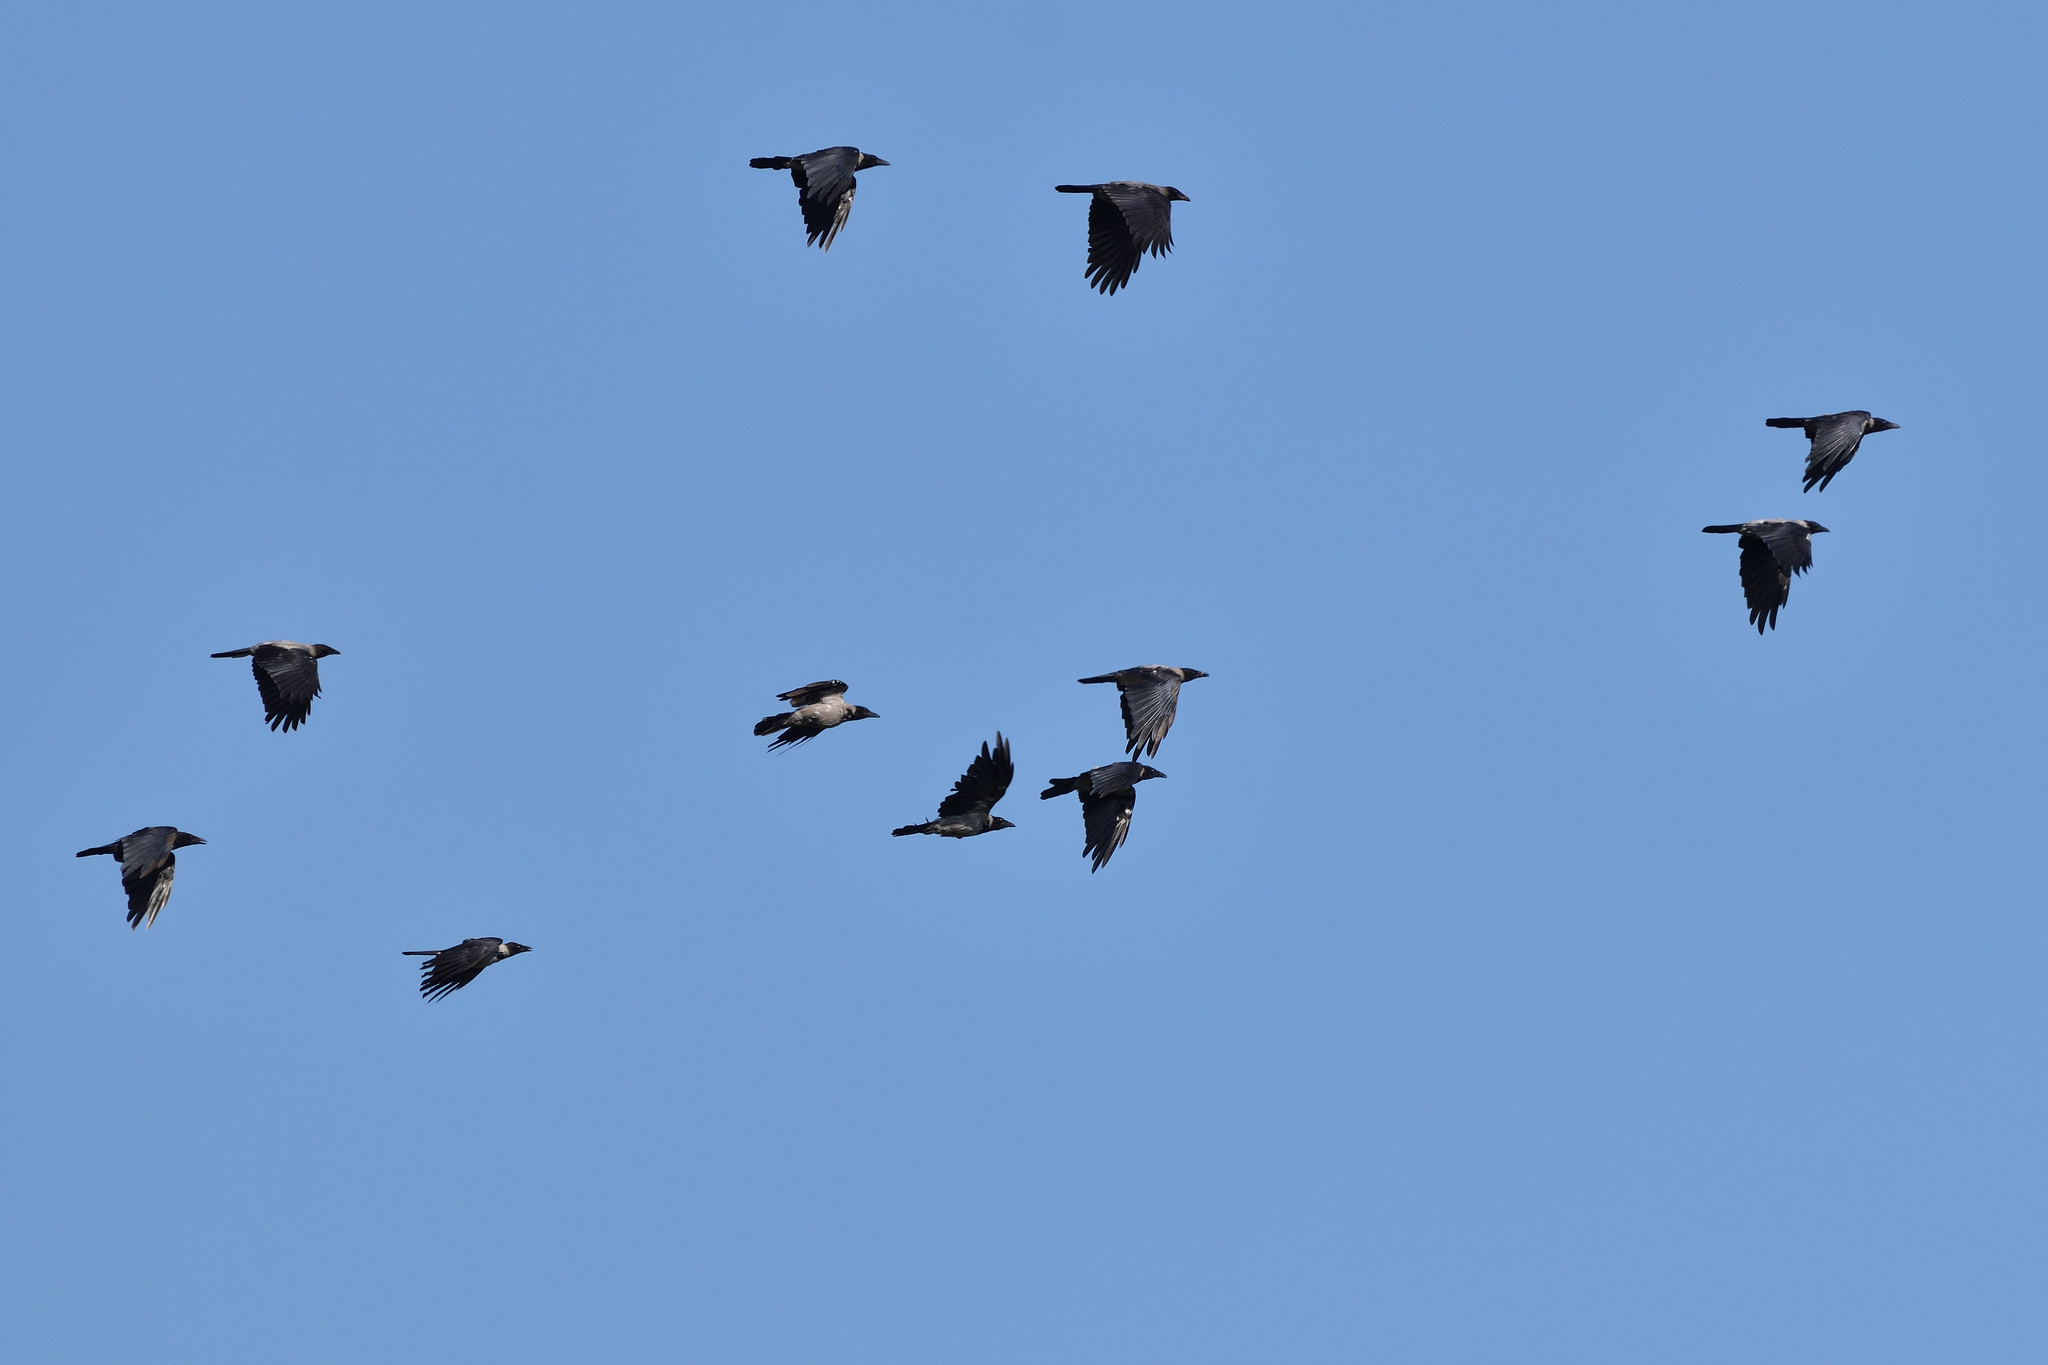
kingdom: Animalia
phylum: Chordata
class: Aves
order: Passeriformes
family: Corvidae
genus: Corvus
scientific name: Corvus cornix
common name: Hooded crow
